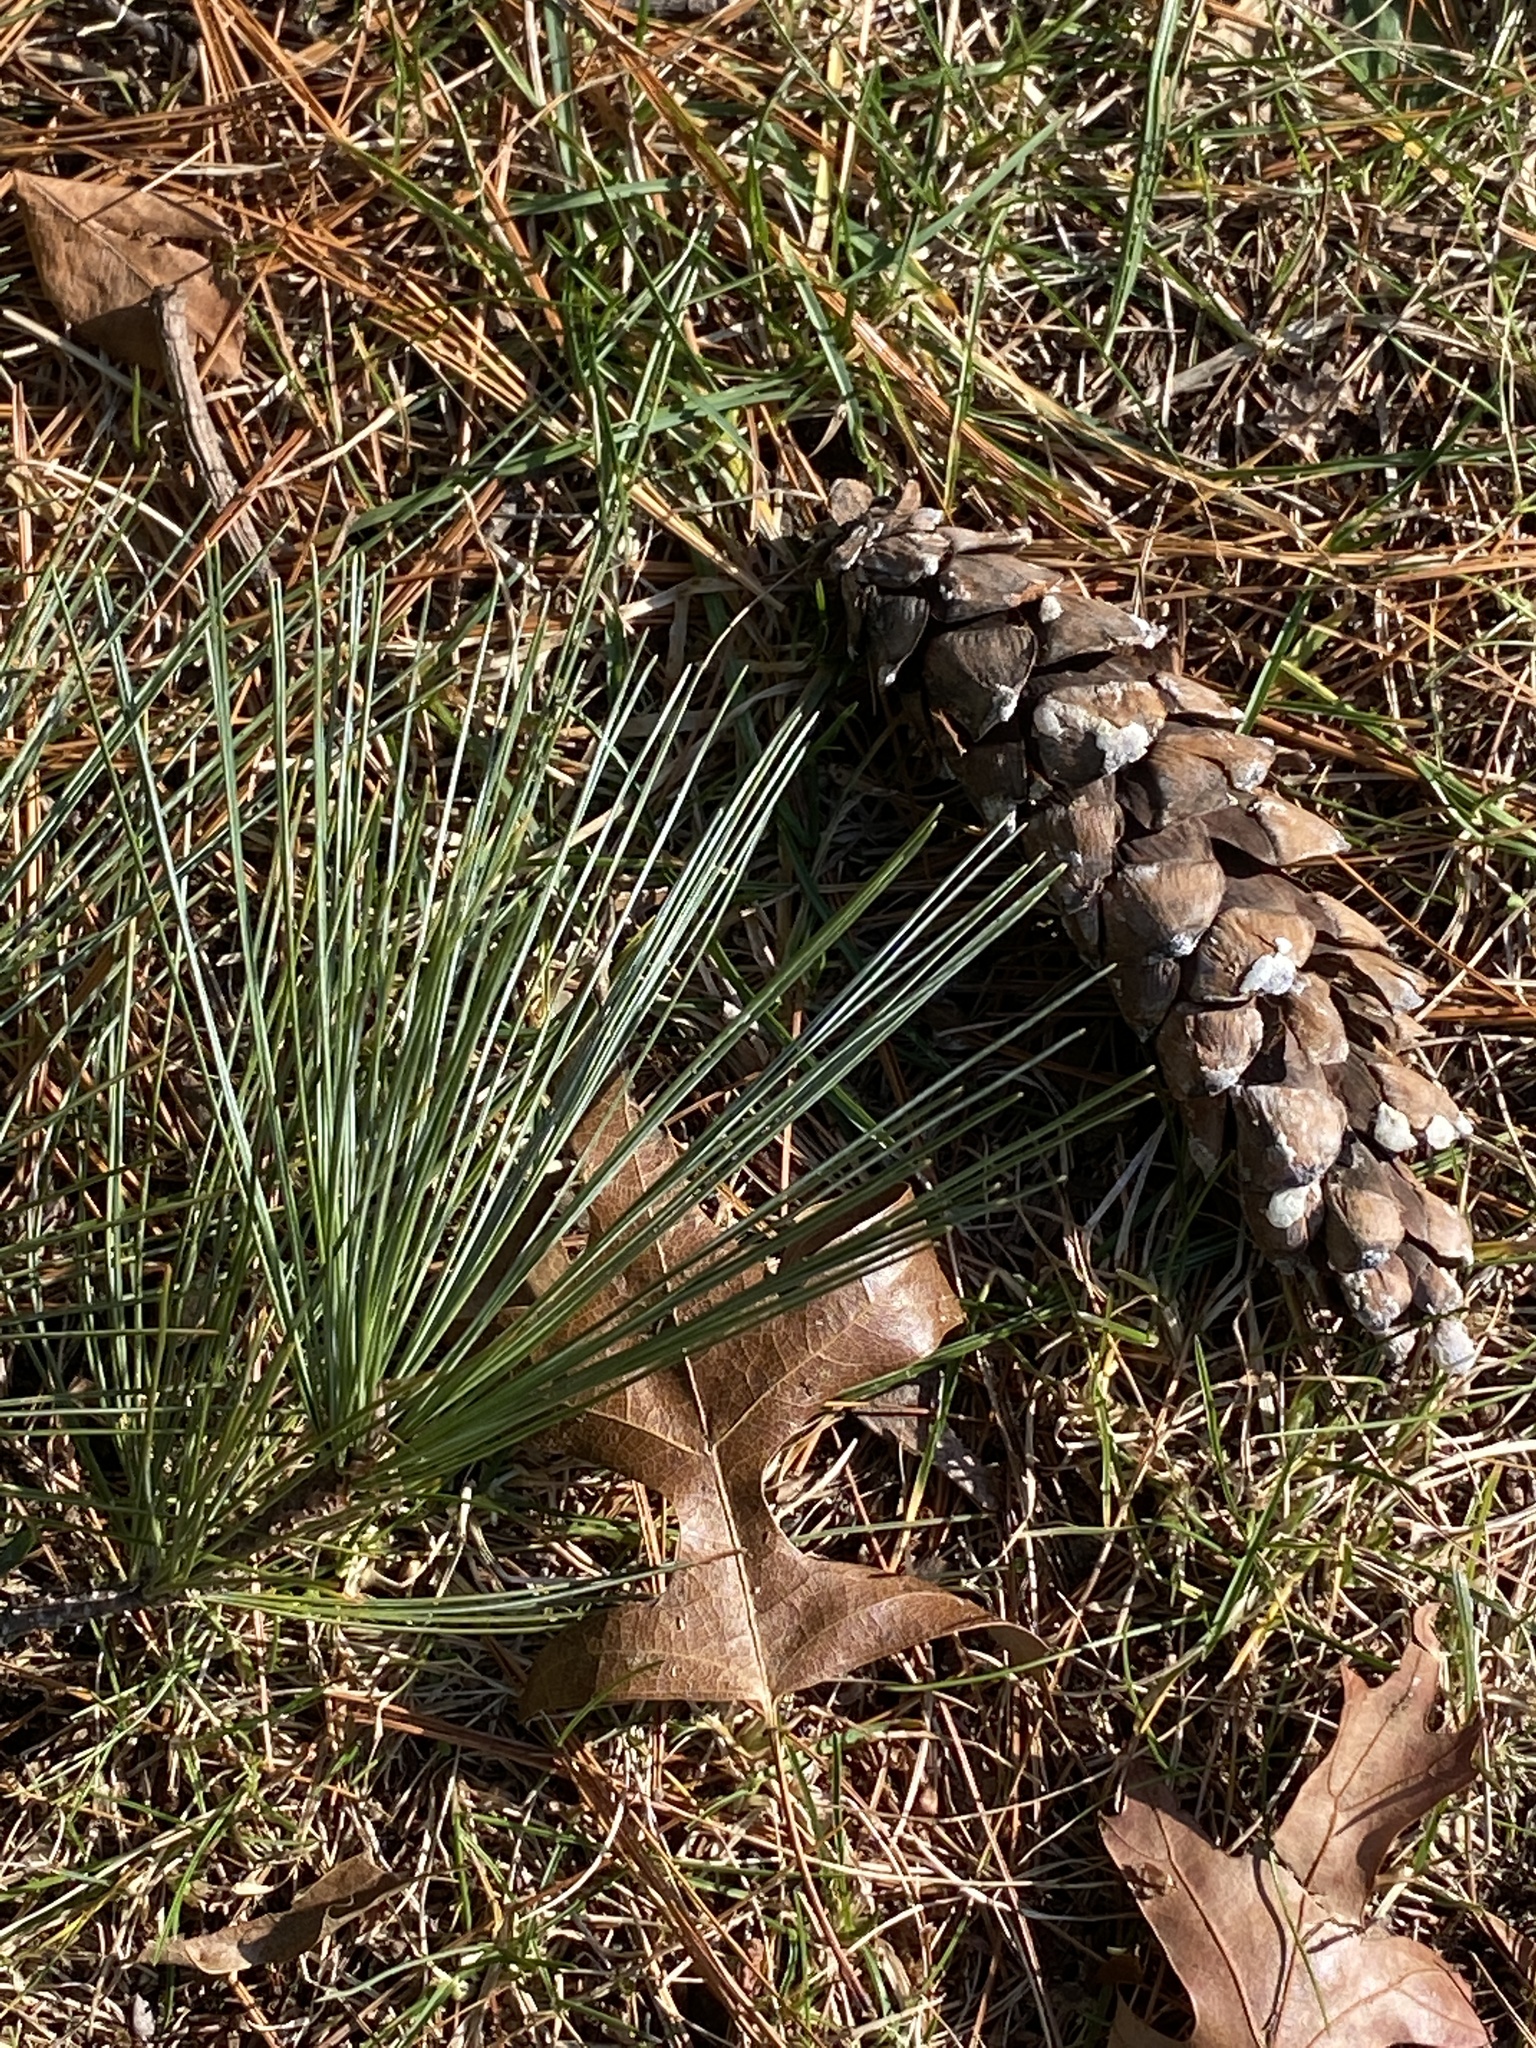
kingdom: Plantae
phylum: Tracheophyta
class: Pinopsida
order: Pinales
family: Pinaceae
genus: Pinus
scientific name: Pinus strobus
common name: Weymouth pine
